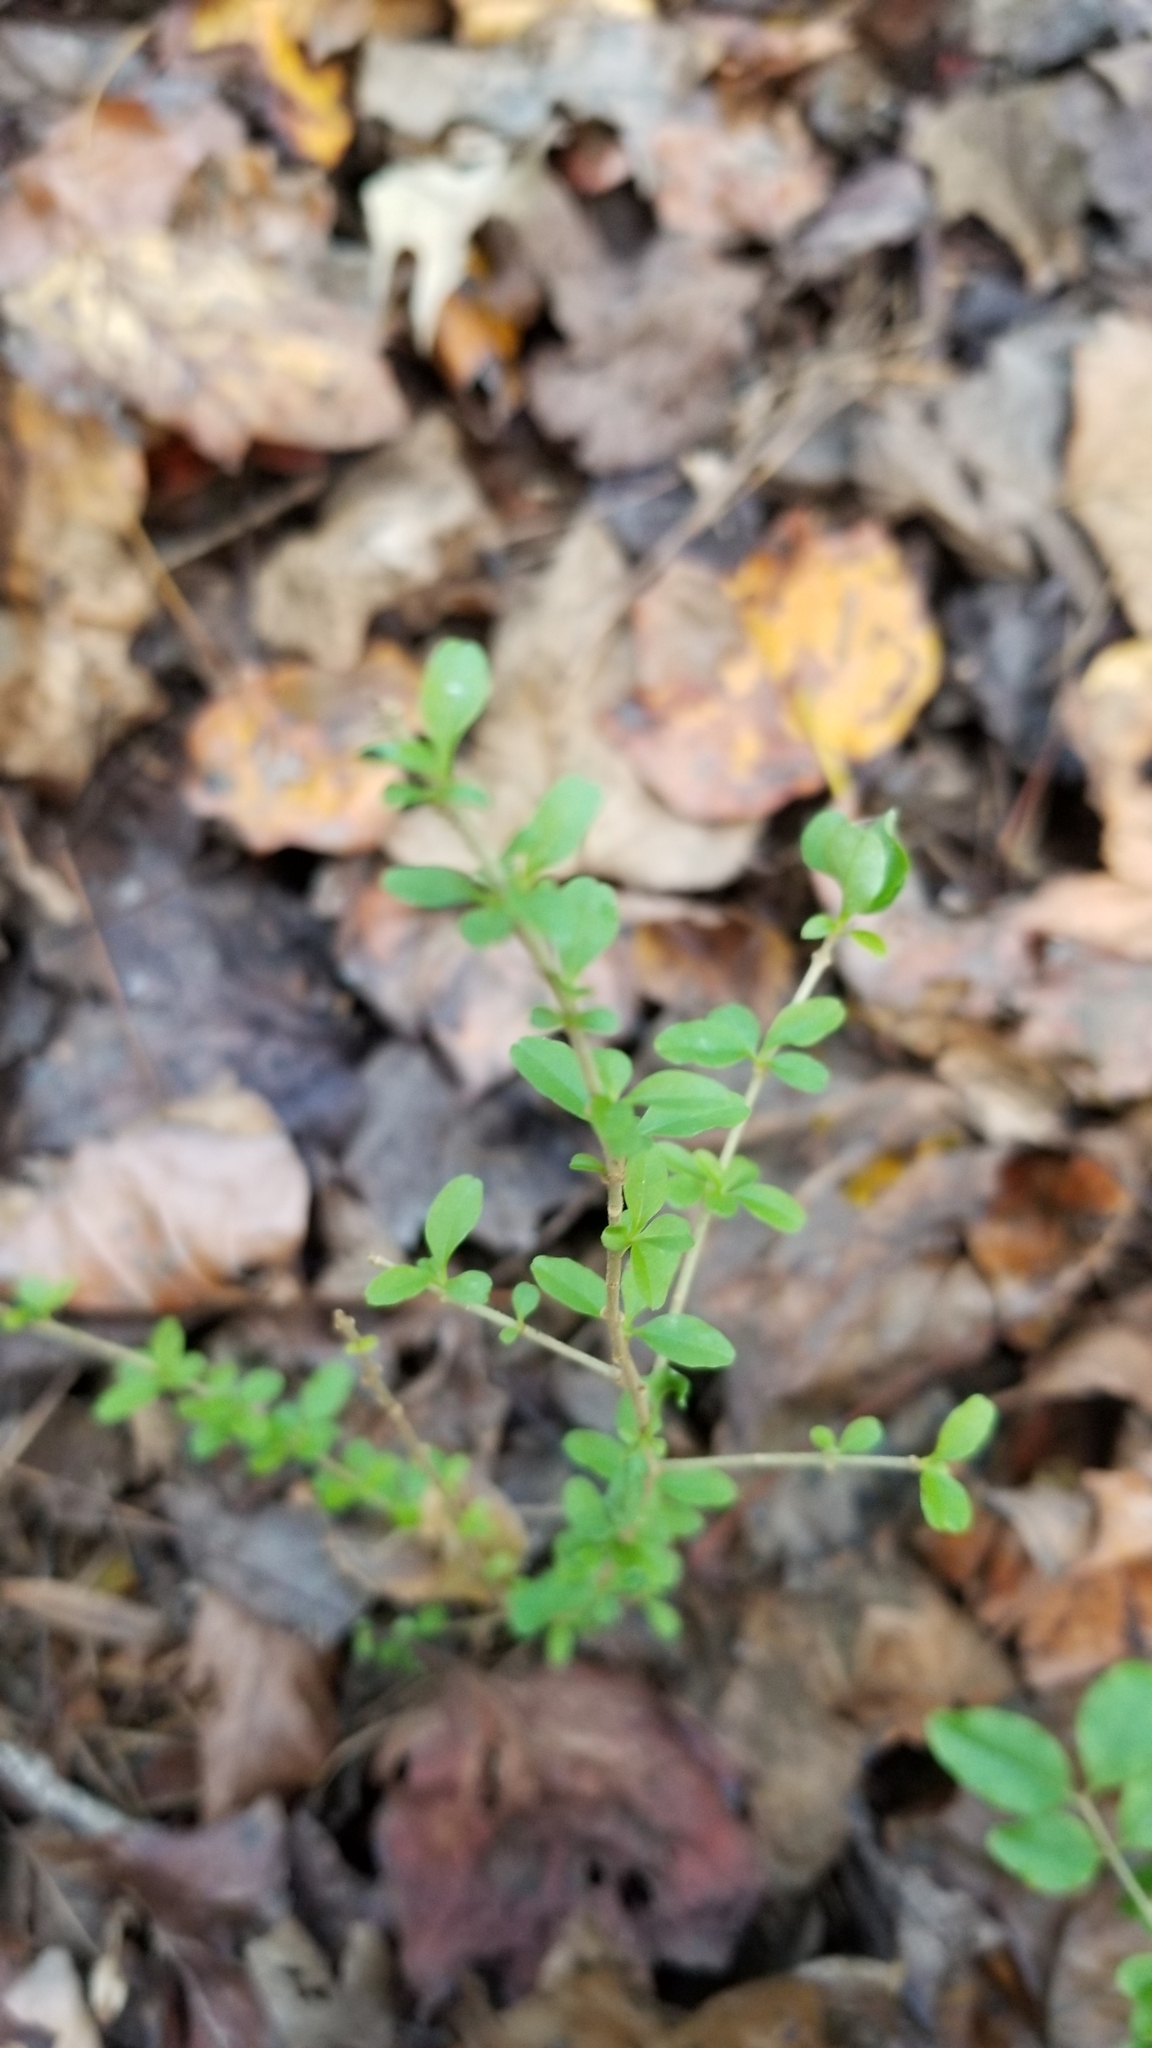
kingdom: Plantae
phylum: Tracheophyta
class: Magnoliopsida
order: Lamiales
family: Oleaceae
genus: Ligustrum
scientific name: Ligustrum sinense
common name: Chinese privet
